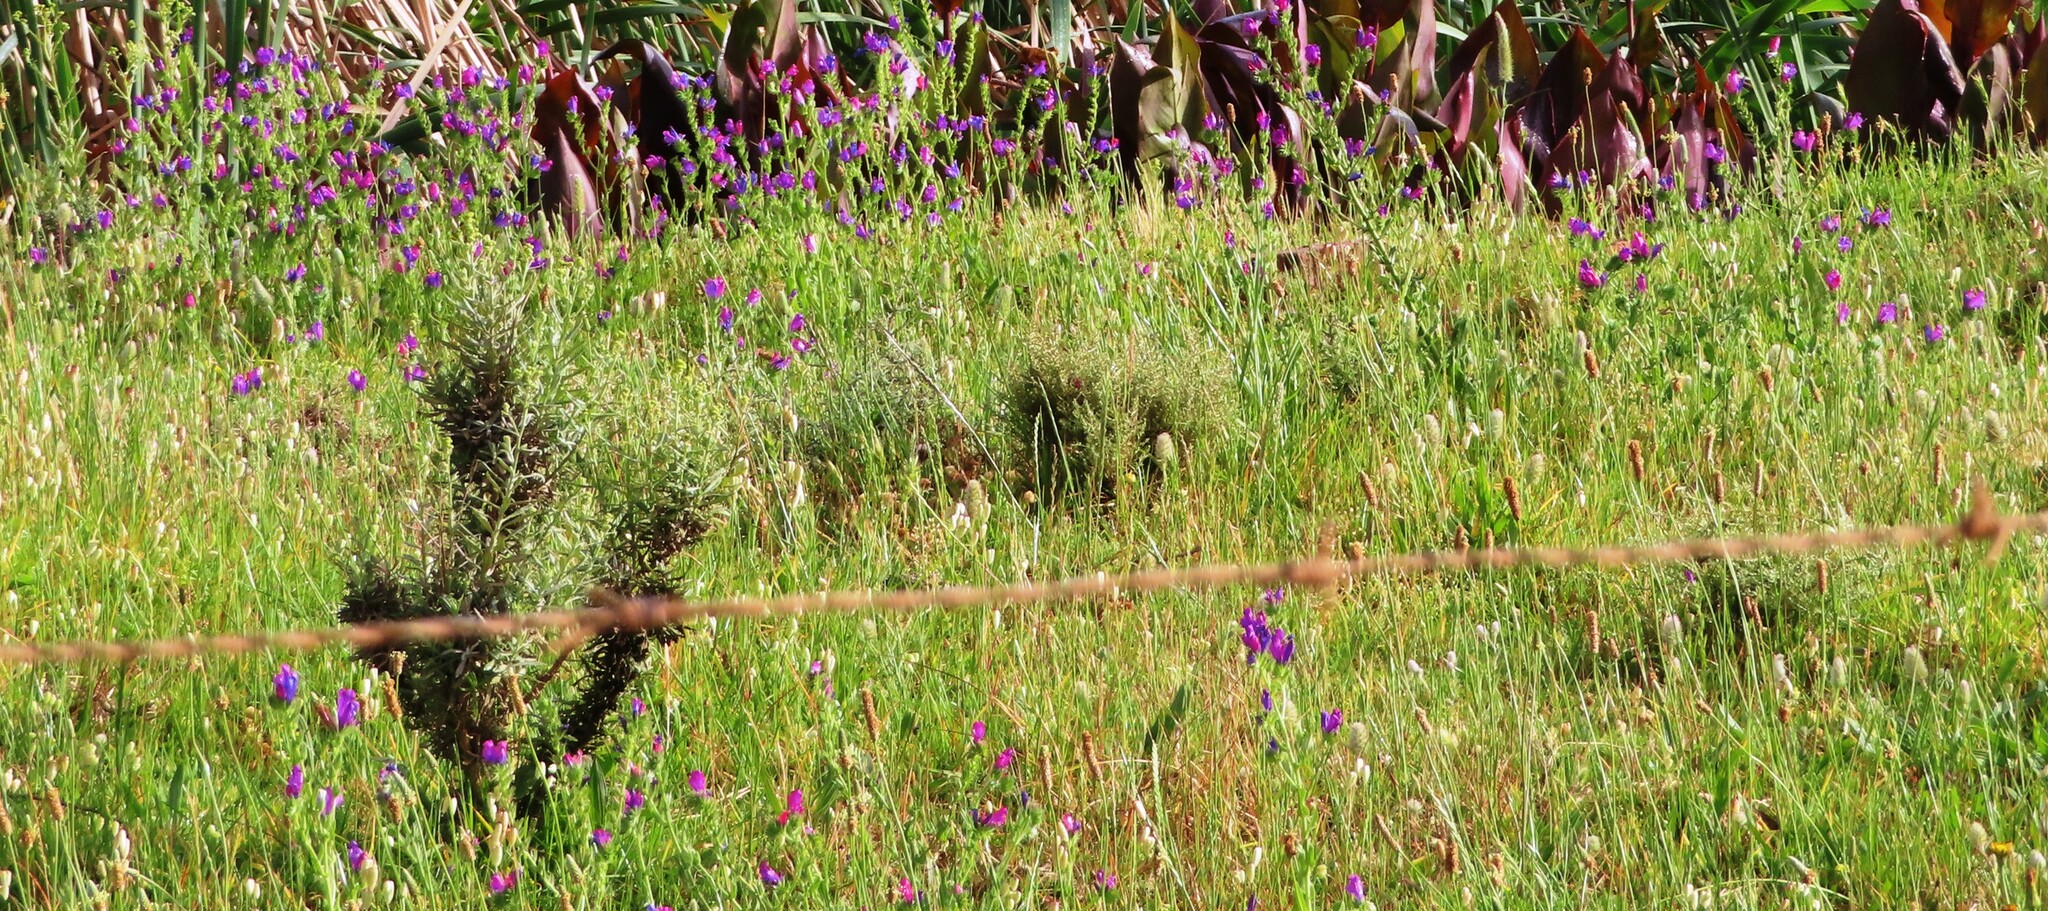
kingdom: Plantae
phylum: Tracheophyta
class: Magnoliopsida
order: Boraginales
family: Boraginaceae
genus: Echium
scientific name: Echium plantagineum
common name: Purple viper's-bugloss
